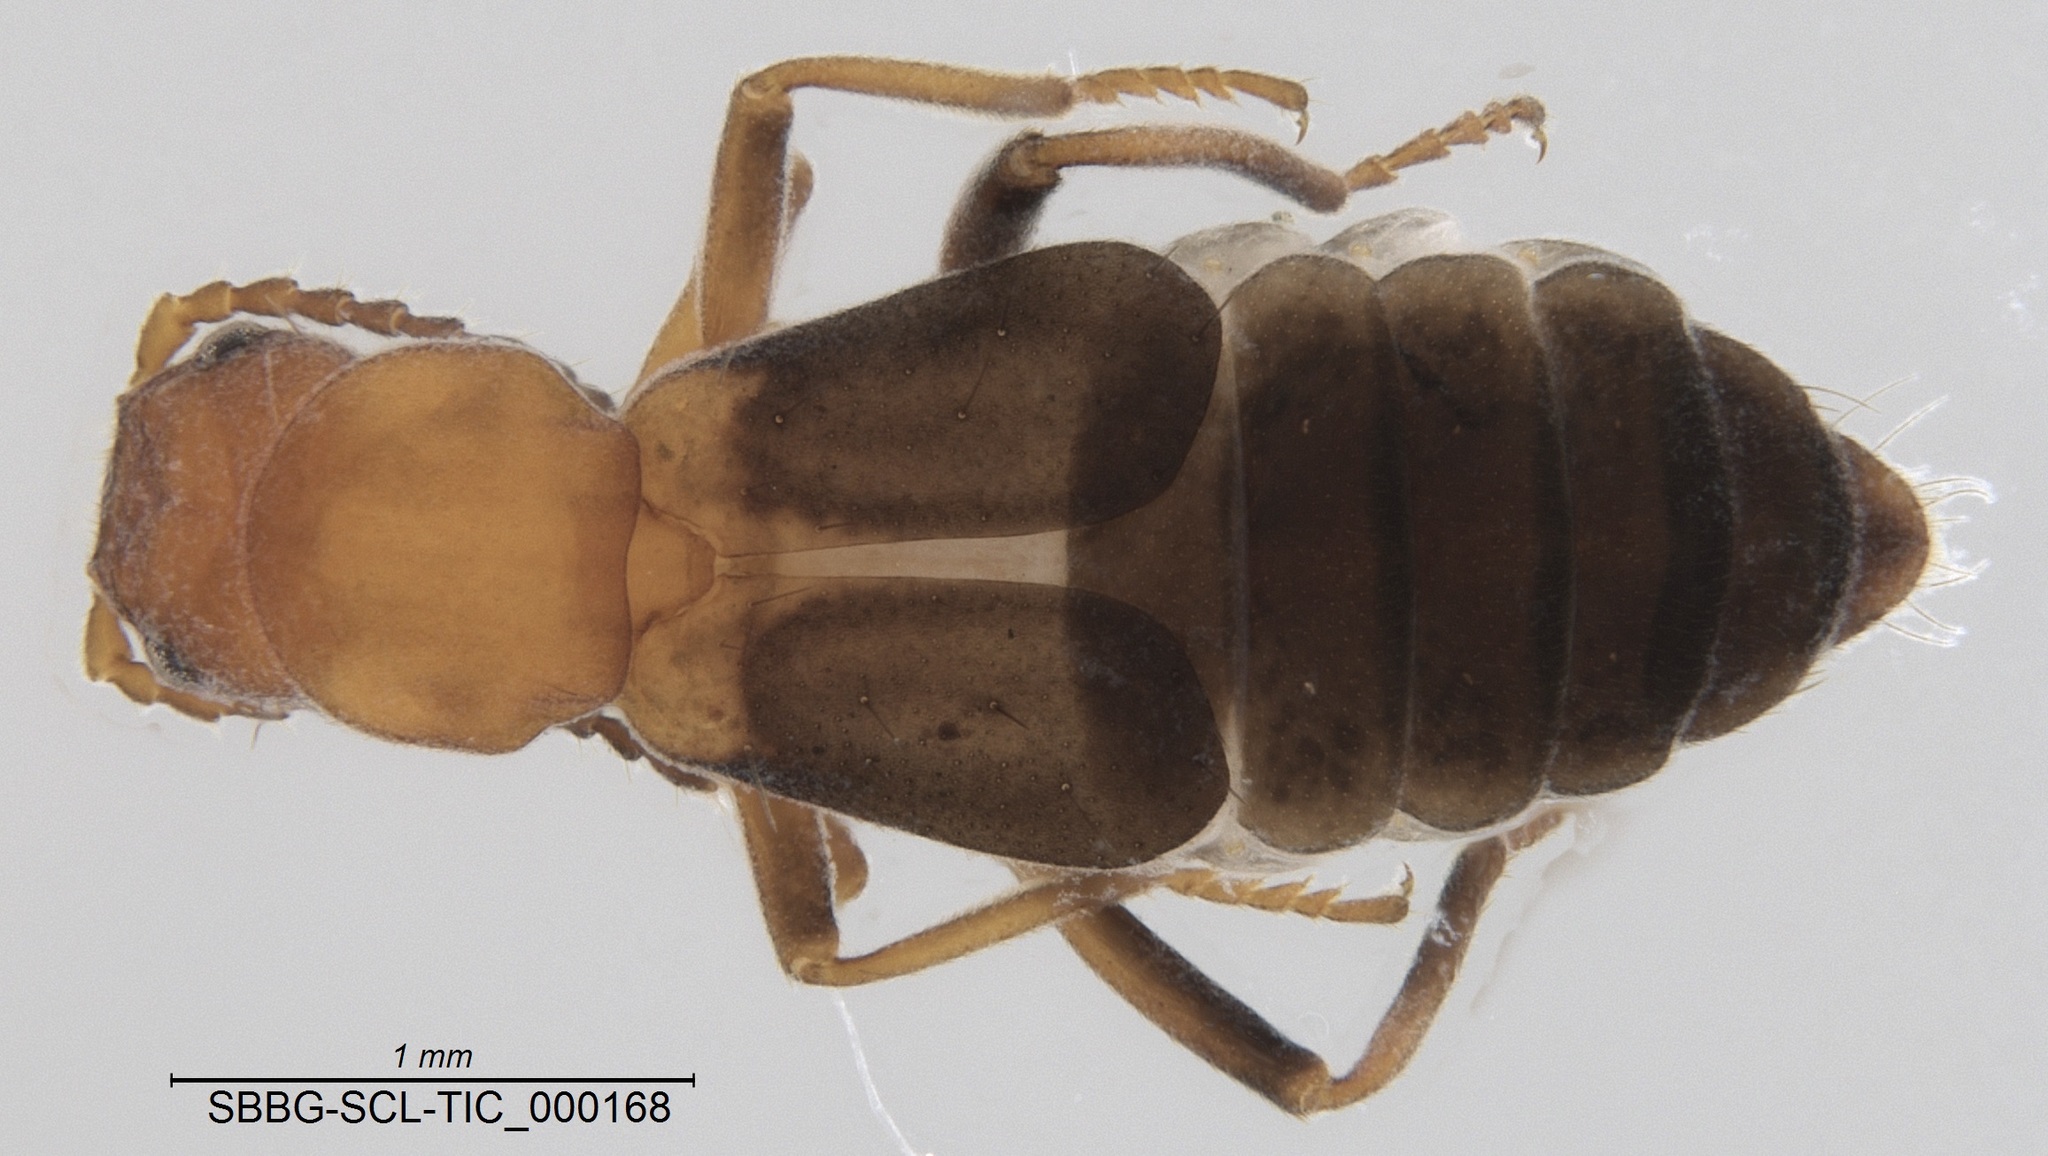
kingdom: Animalia
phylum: Arthropoda
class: Insecta
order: Coleoptera
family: Melyridae
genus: Endeodes
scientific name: Endeodes basalis
